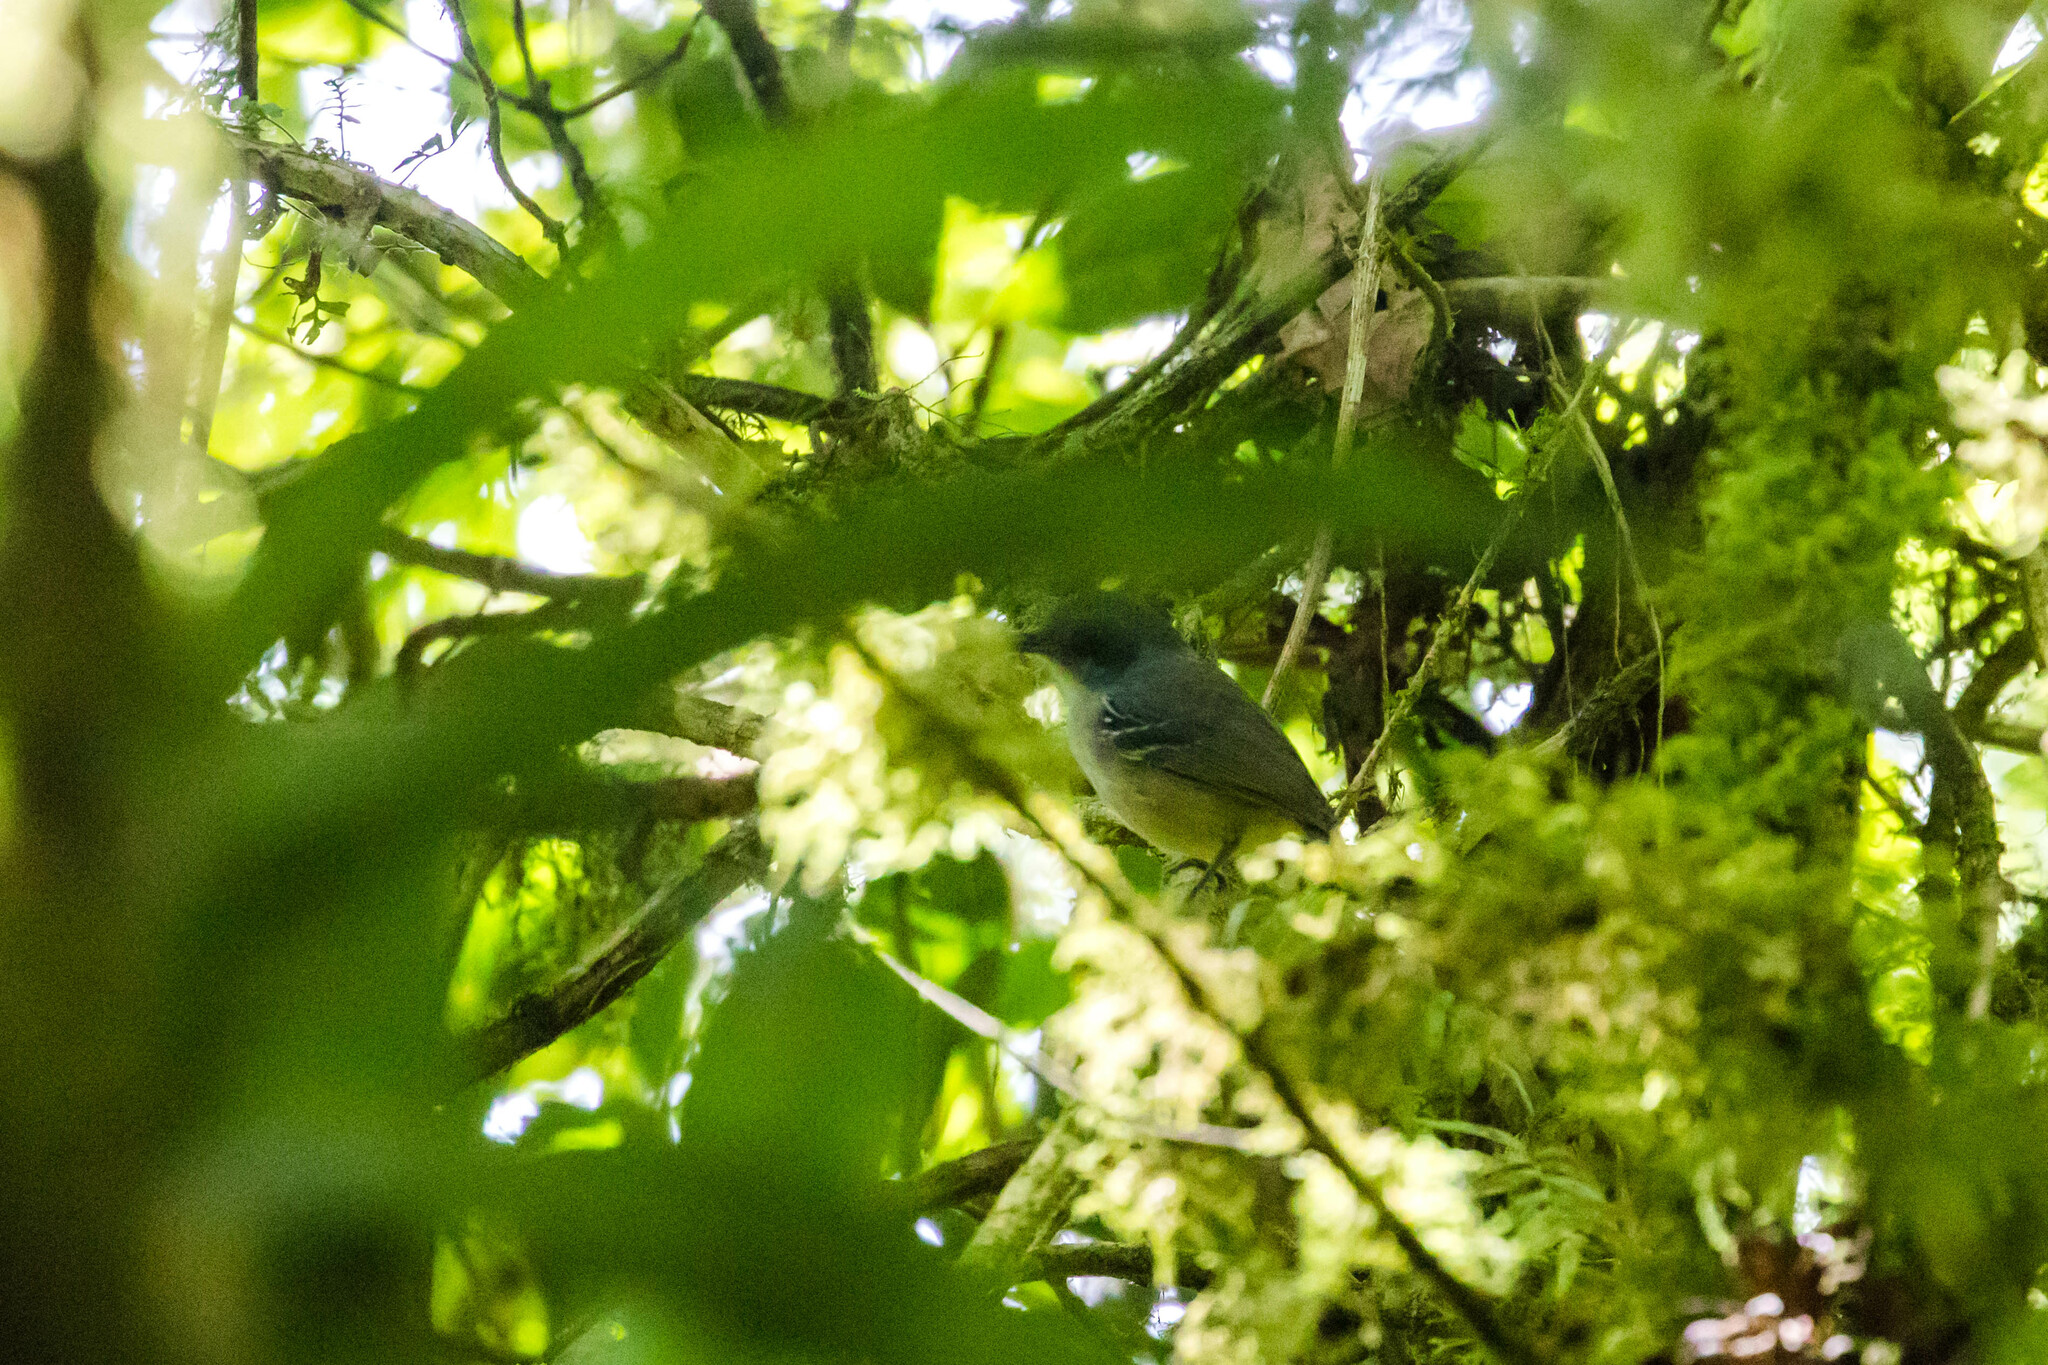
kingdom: Animalia
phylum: Chordata
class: Aves
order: Passeriformes
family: Thamnophilidae
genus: Dysithamnus
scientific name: Dysithamnus mentalis
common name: Plain antvireo
